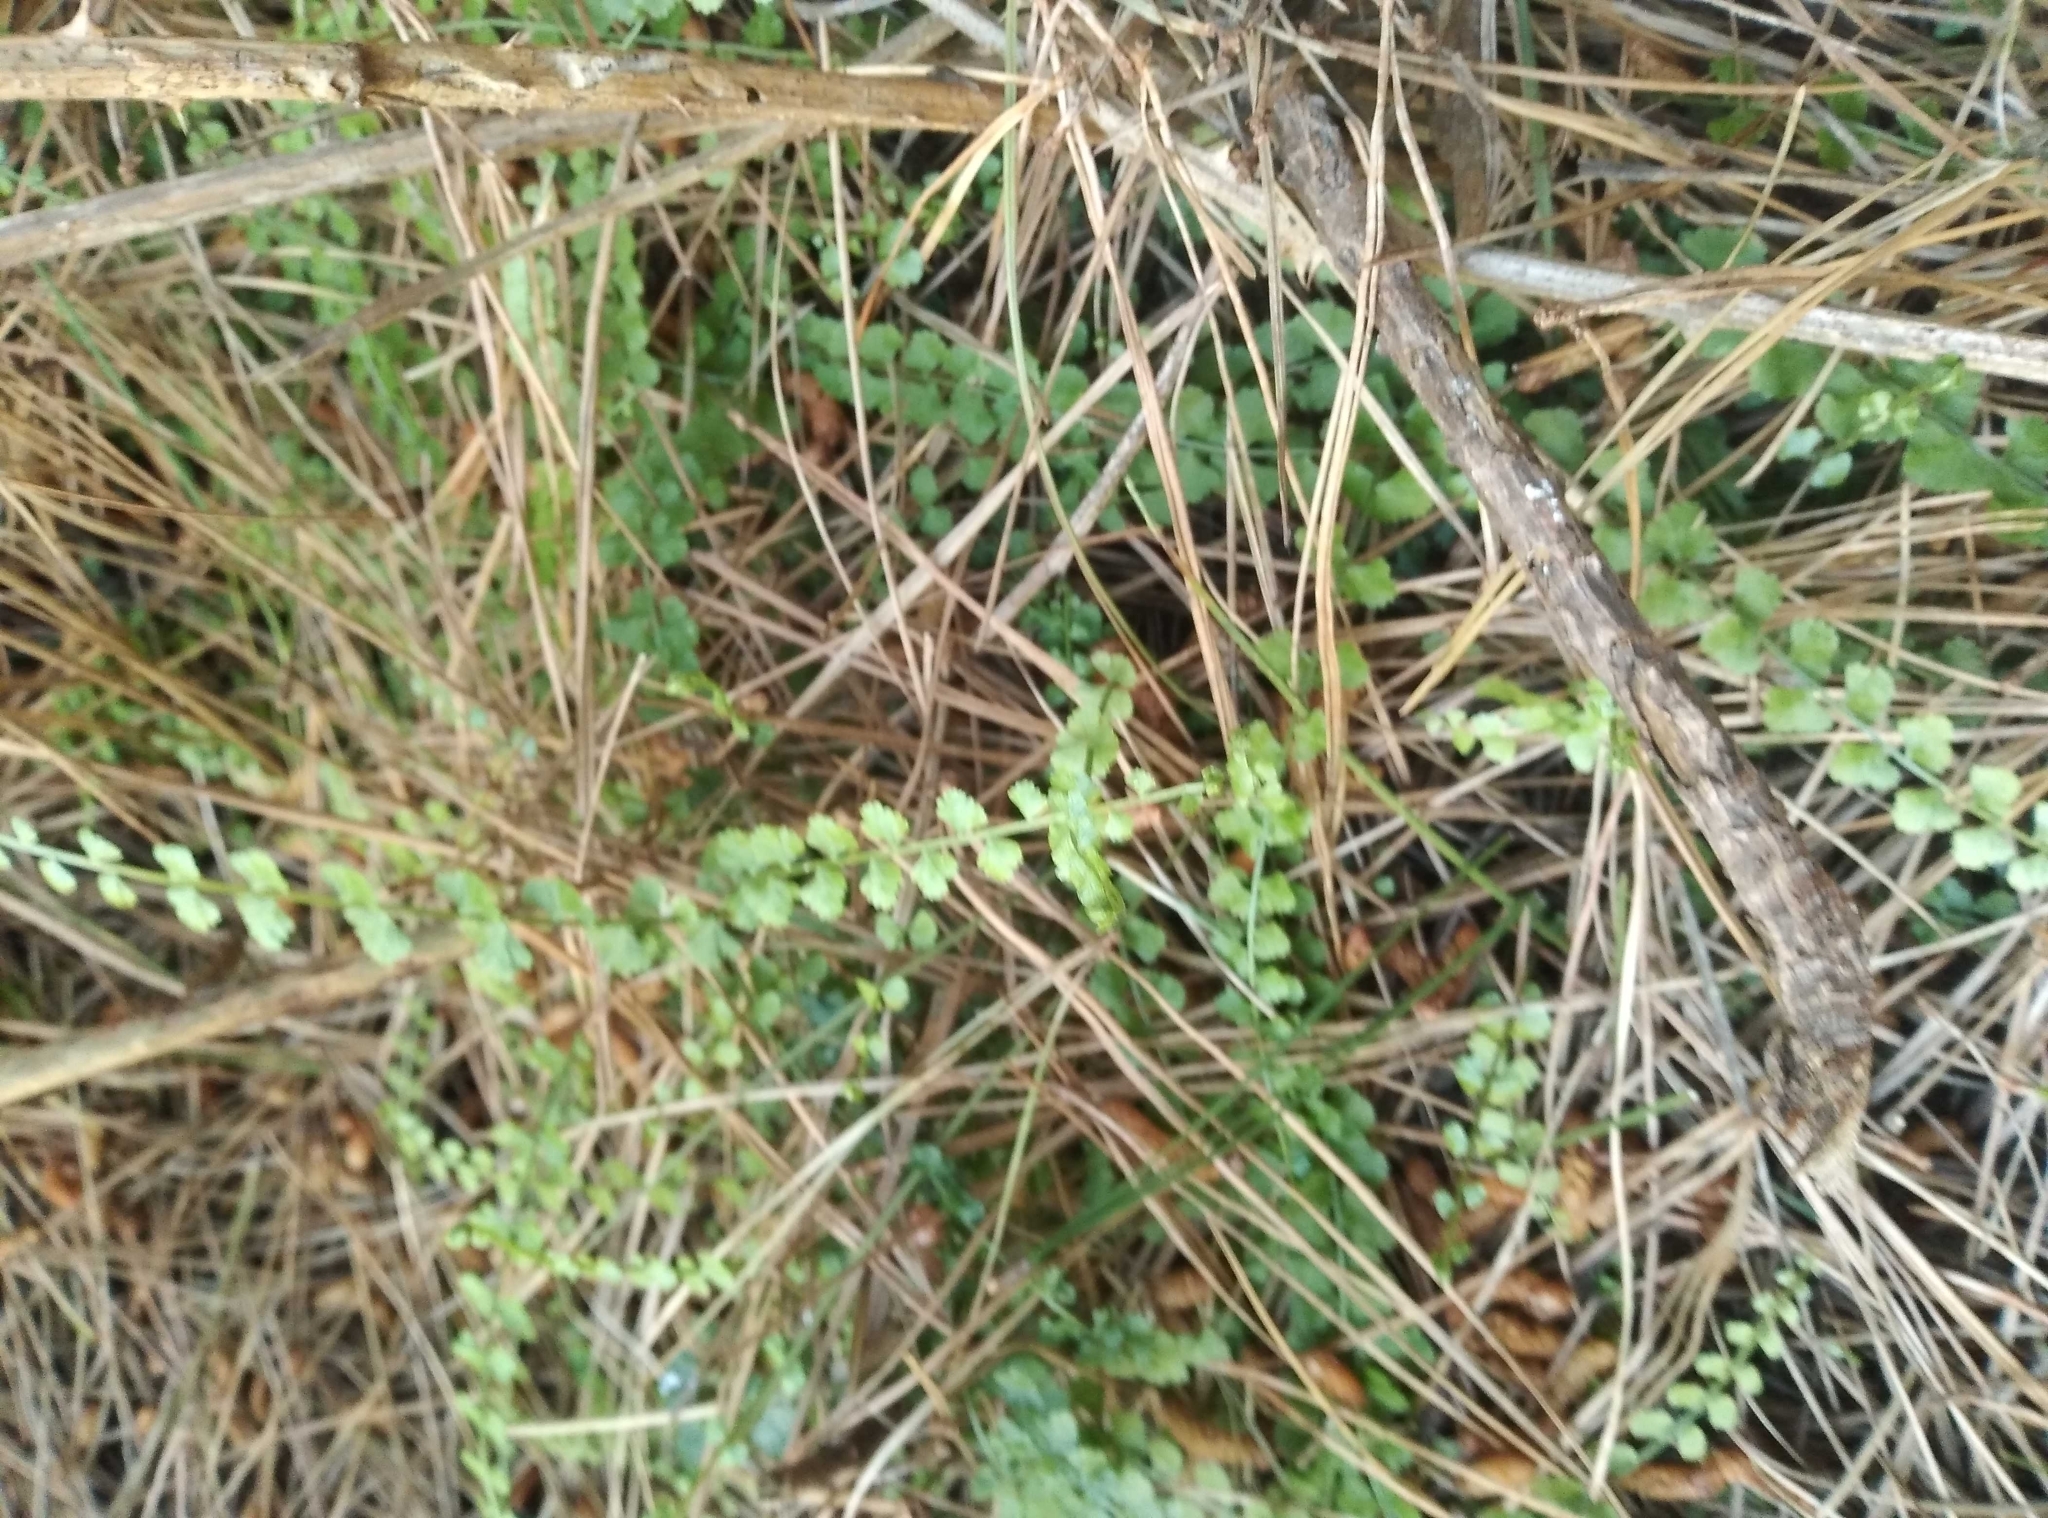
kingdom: Plantae
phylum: Tracheophyta
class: Polypodiopsida
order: Polypodiales
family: Aspleniaceae
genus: Asplenium
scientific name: Asplenium flabellifolium
